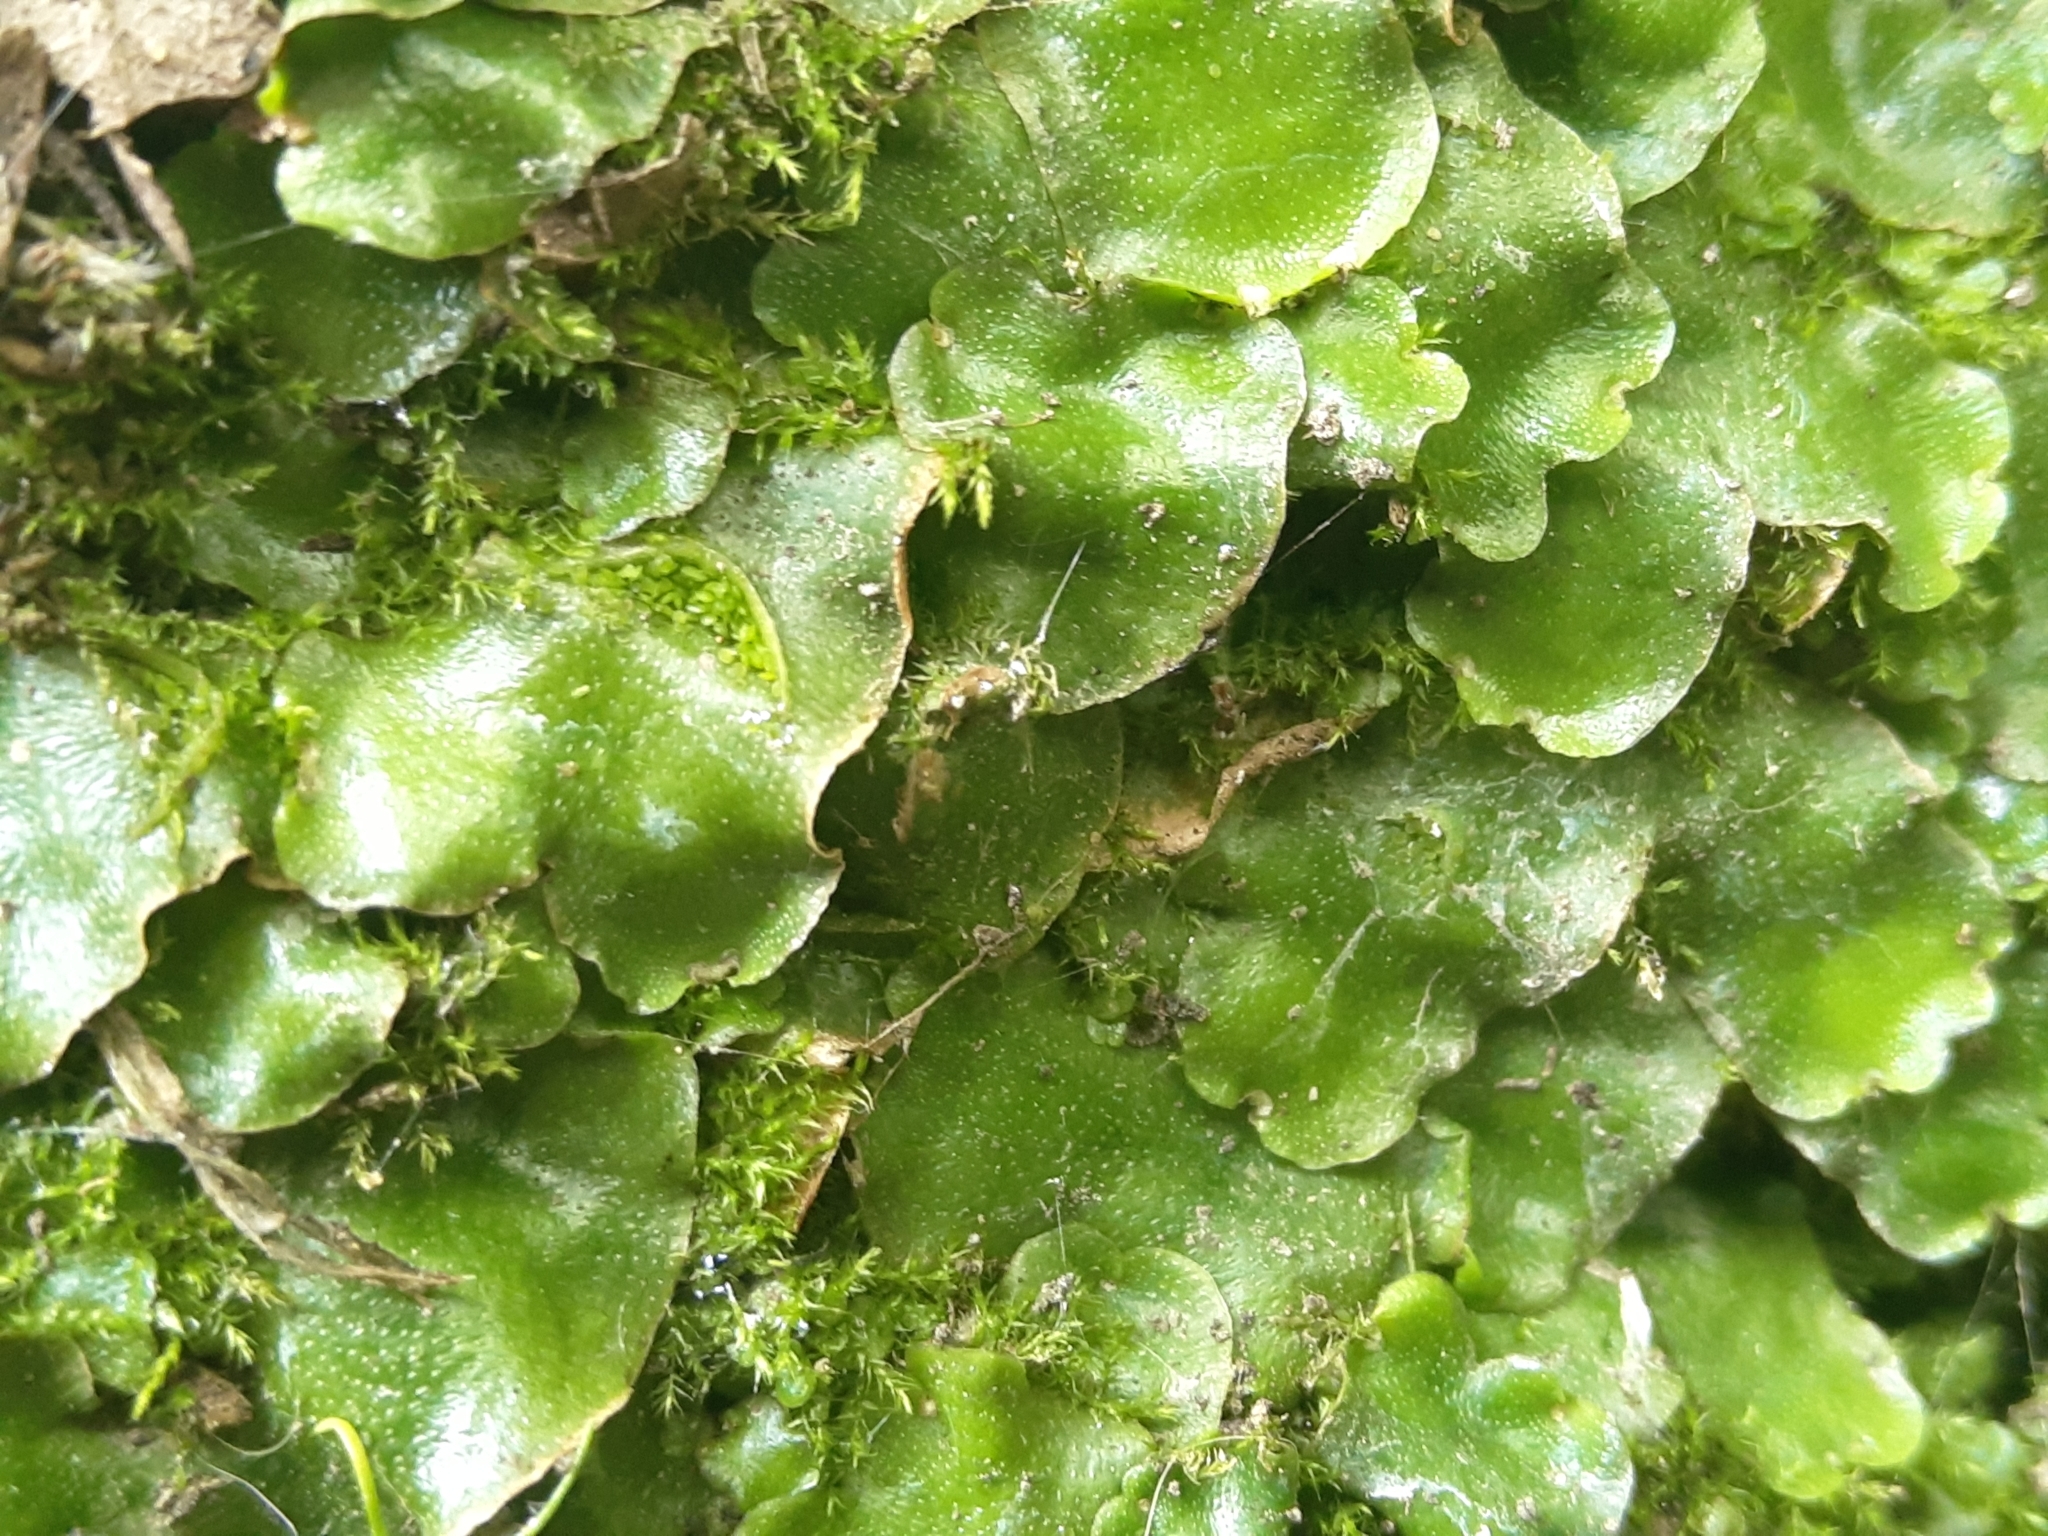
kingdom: Plantae
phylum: Marchantiophyta
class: Marchantiopsida
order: Lunulariales
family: Lunulariaceae
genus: Lunularia
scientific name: Lunularia cruciata
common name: Crescent-cup liverwort
